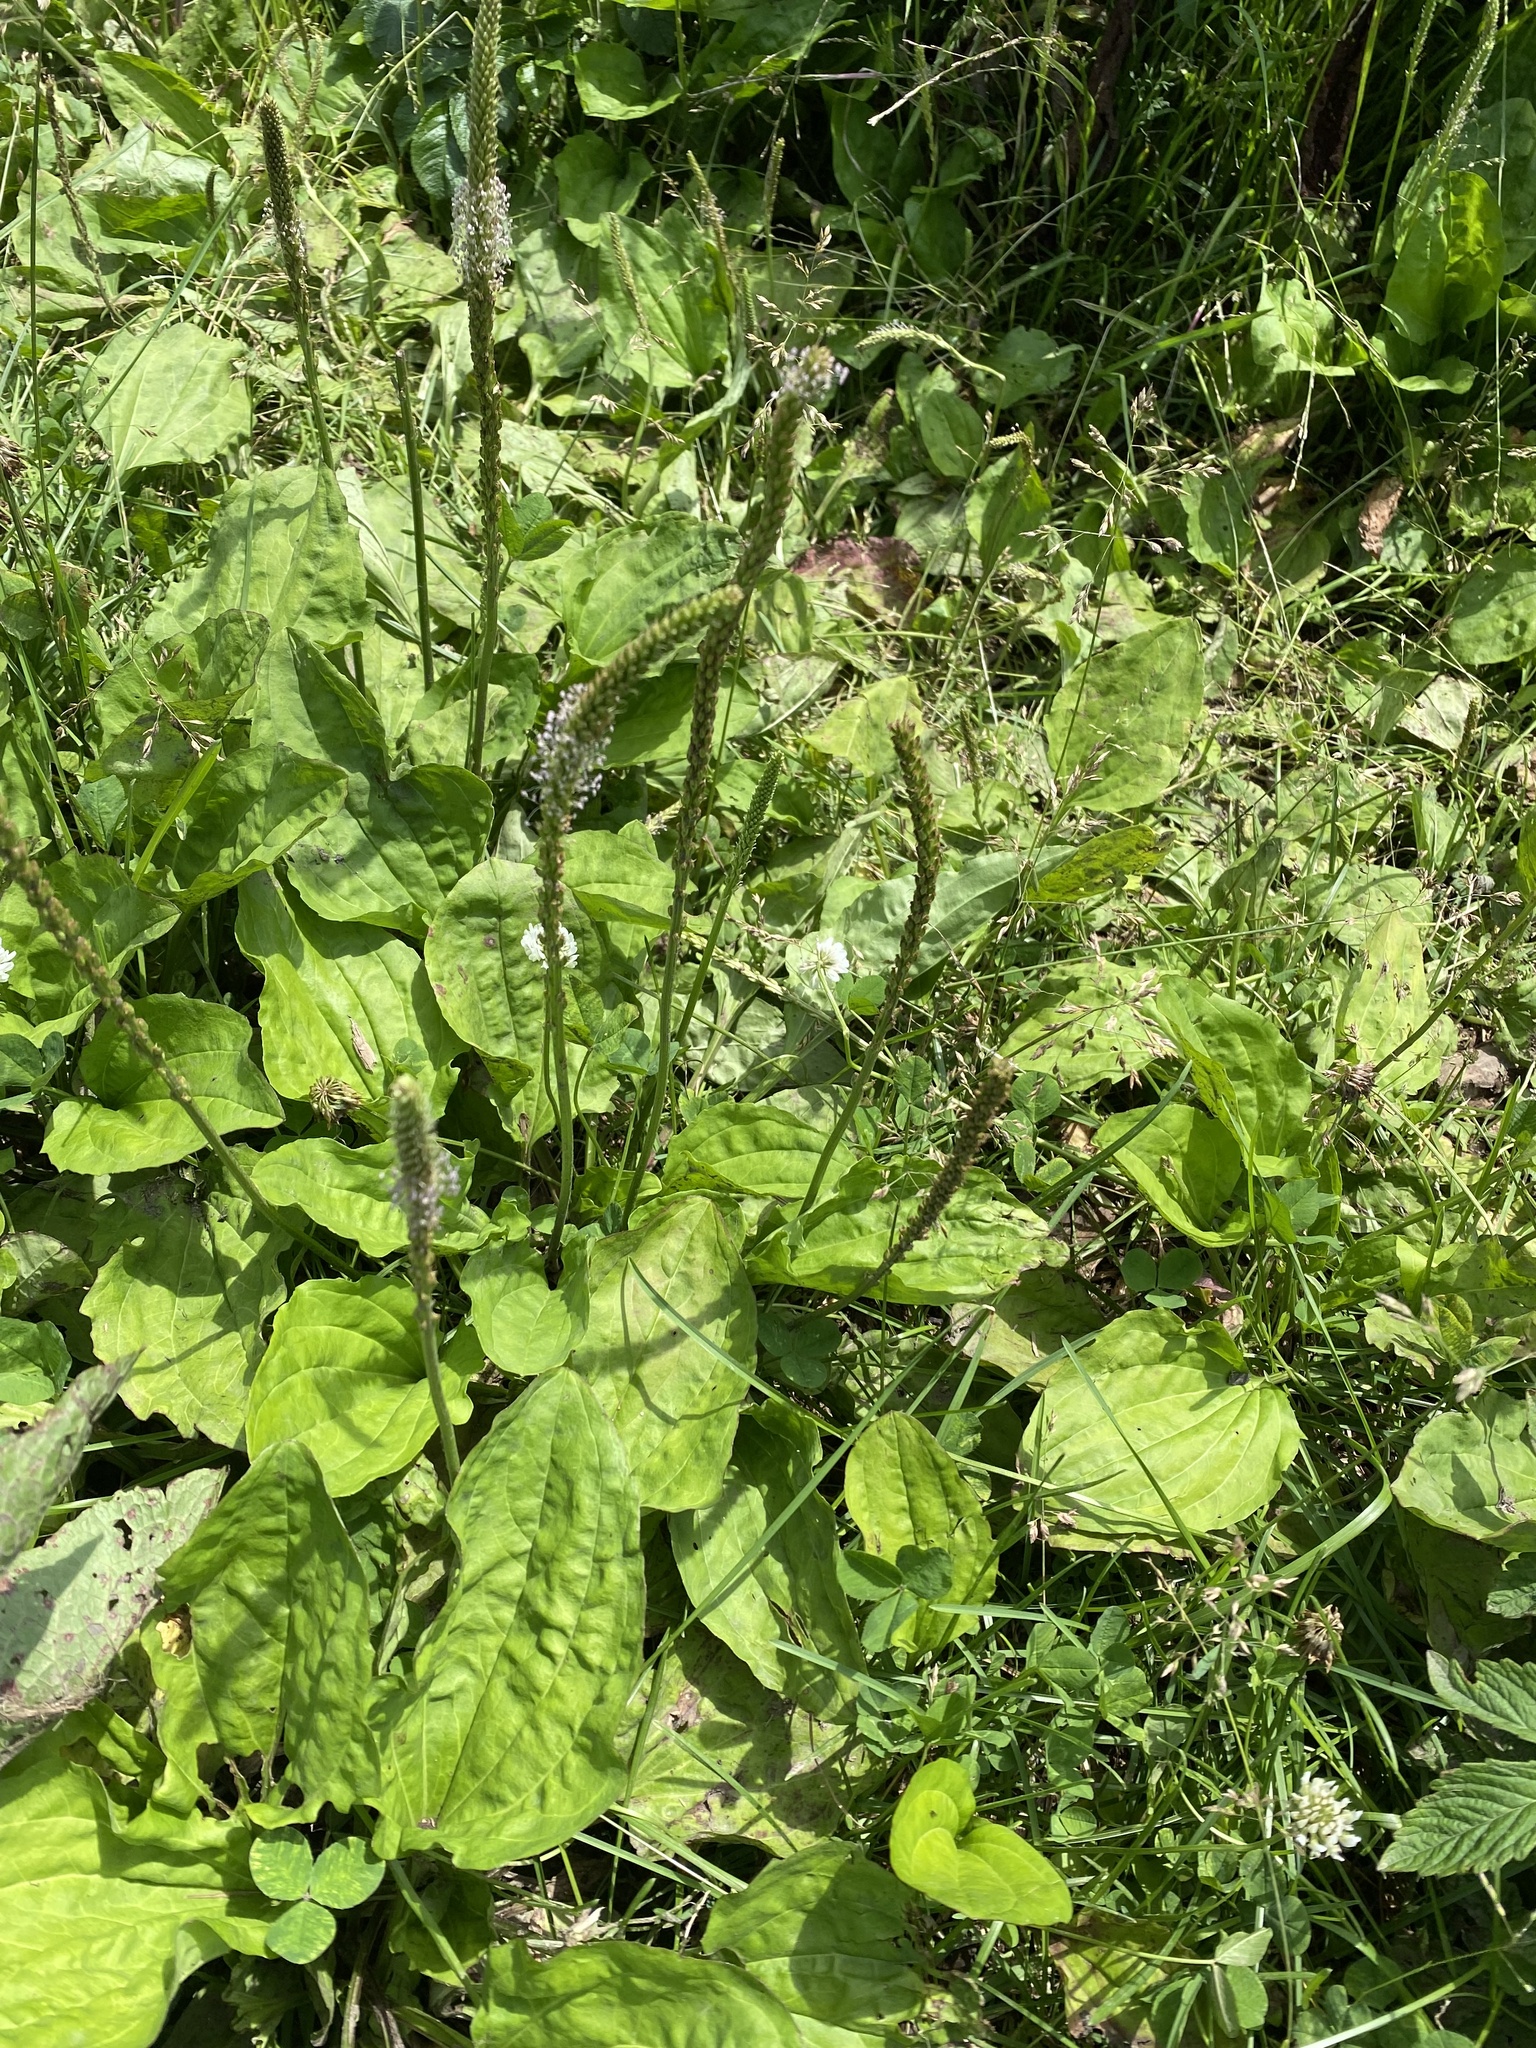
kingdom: Plantae
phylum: Tracheophyta
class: Magnoliopsida
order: Lamiales
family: Plantaginaceae
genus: Plantago
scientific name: Plantago major
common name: Common plantain
